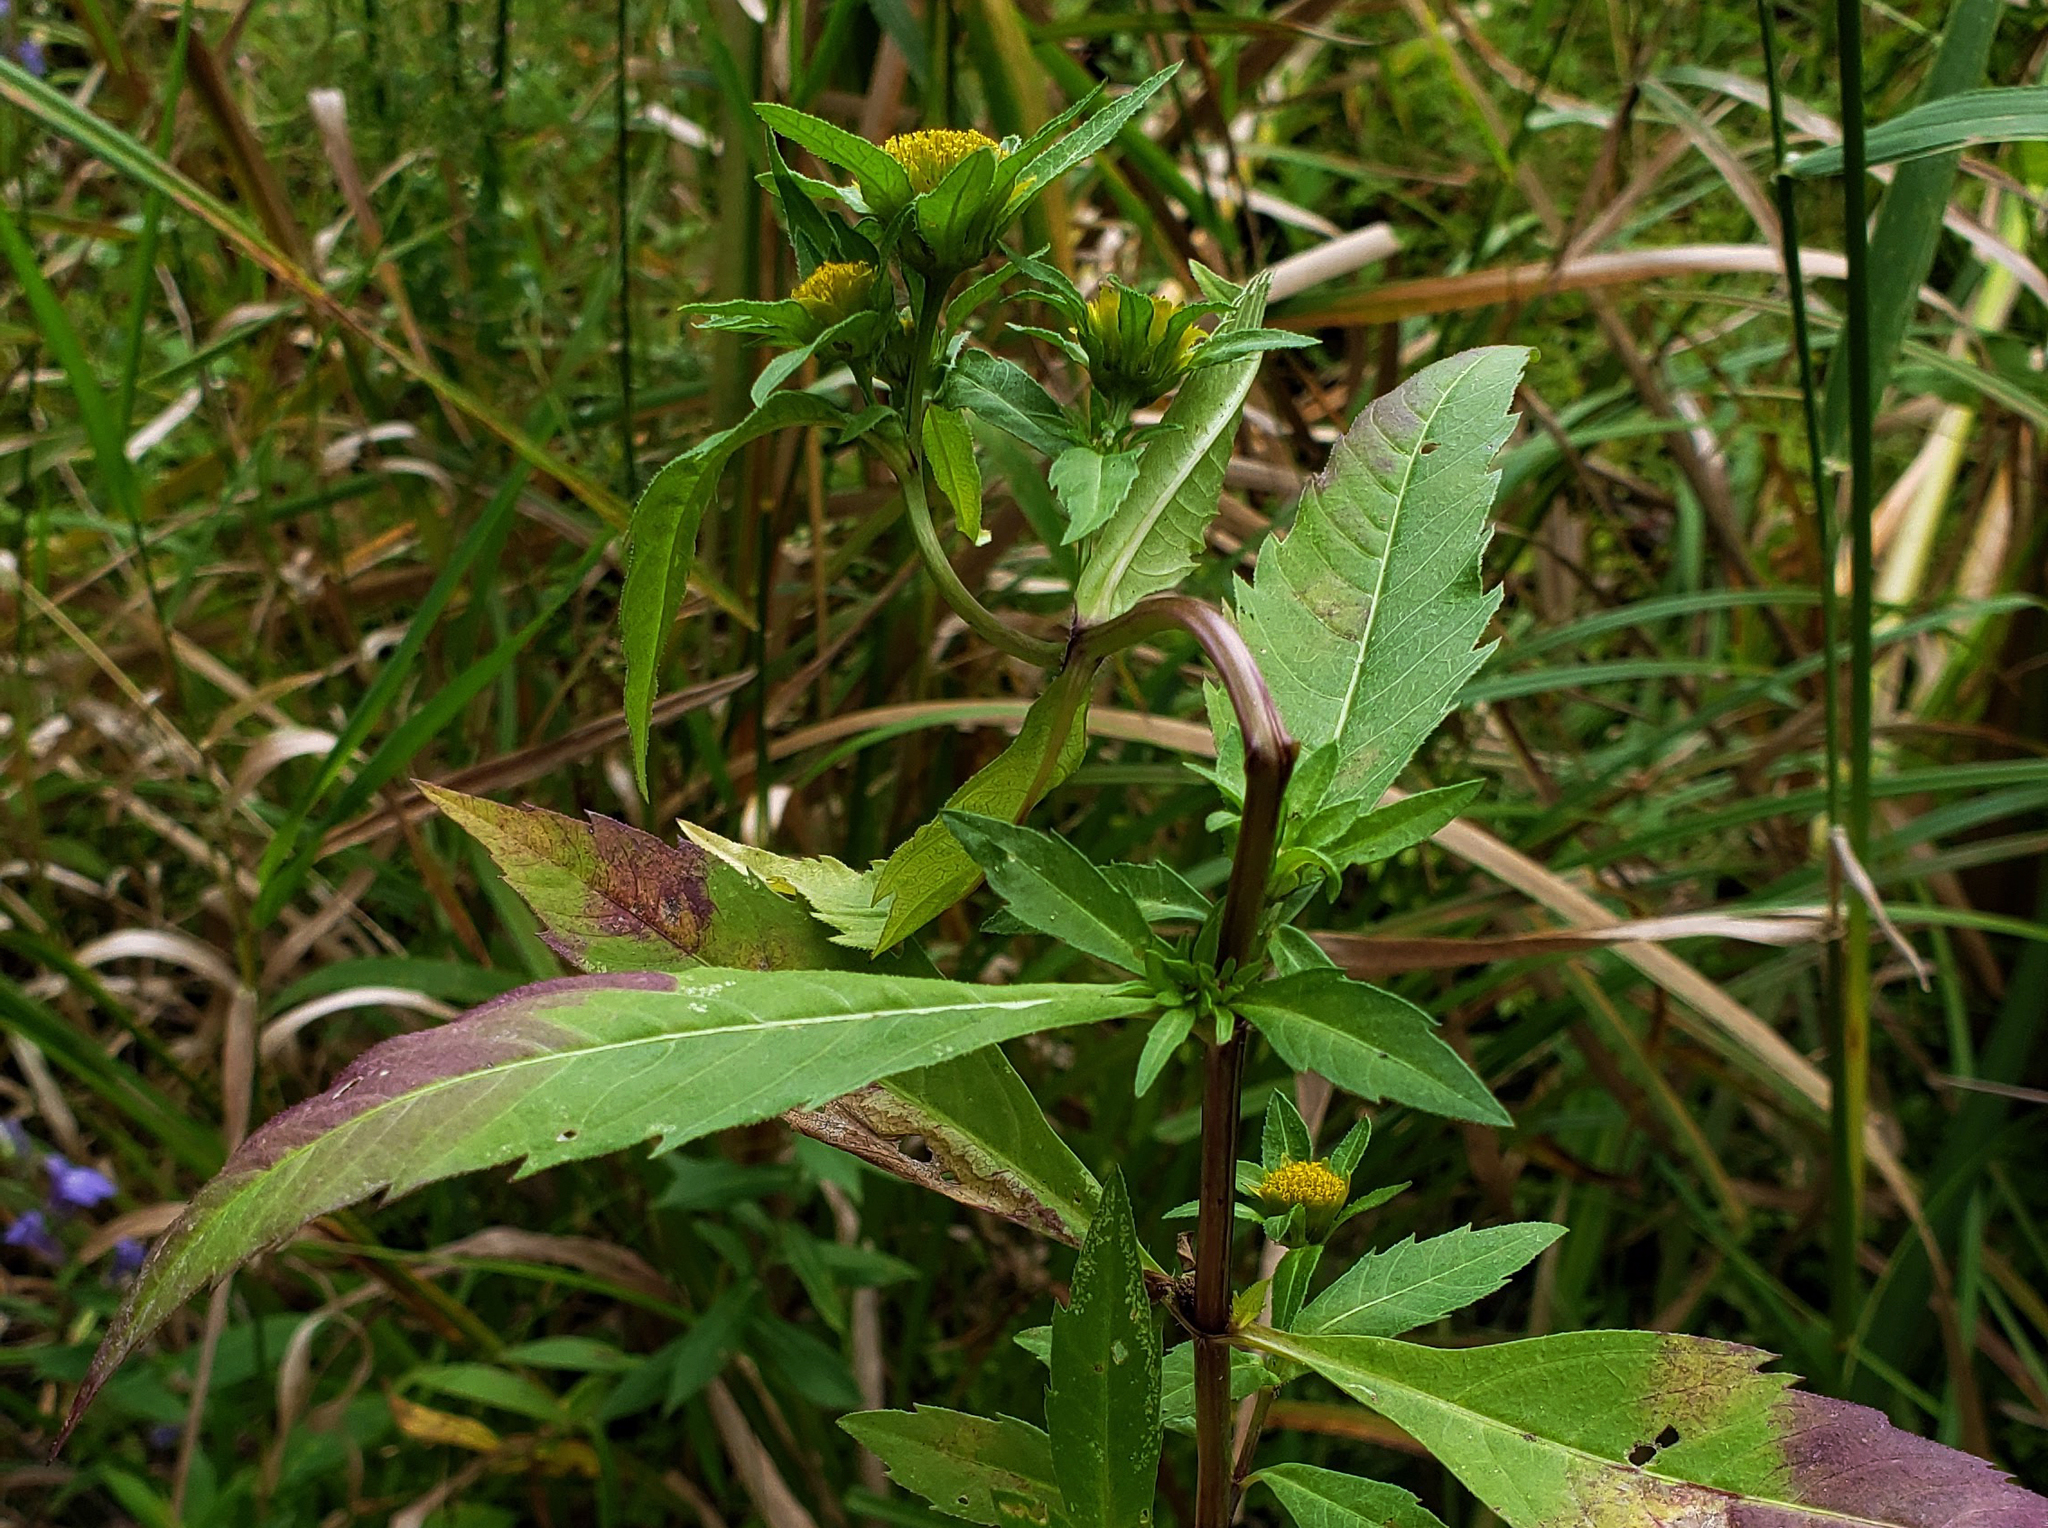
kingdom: Plantae
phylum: Tracheophyta
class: Magnoliopsida
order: Asterales
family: Asteraceae
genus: Bidens
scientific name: Bidens tripartita
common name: Trifid bur-marigold
